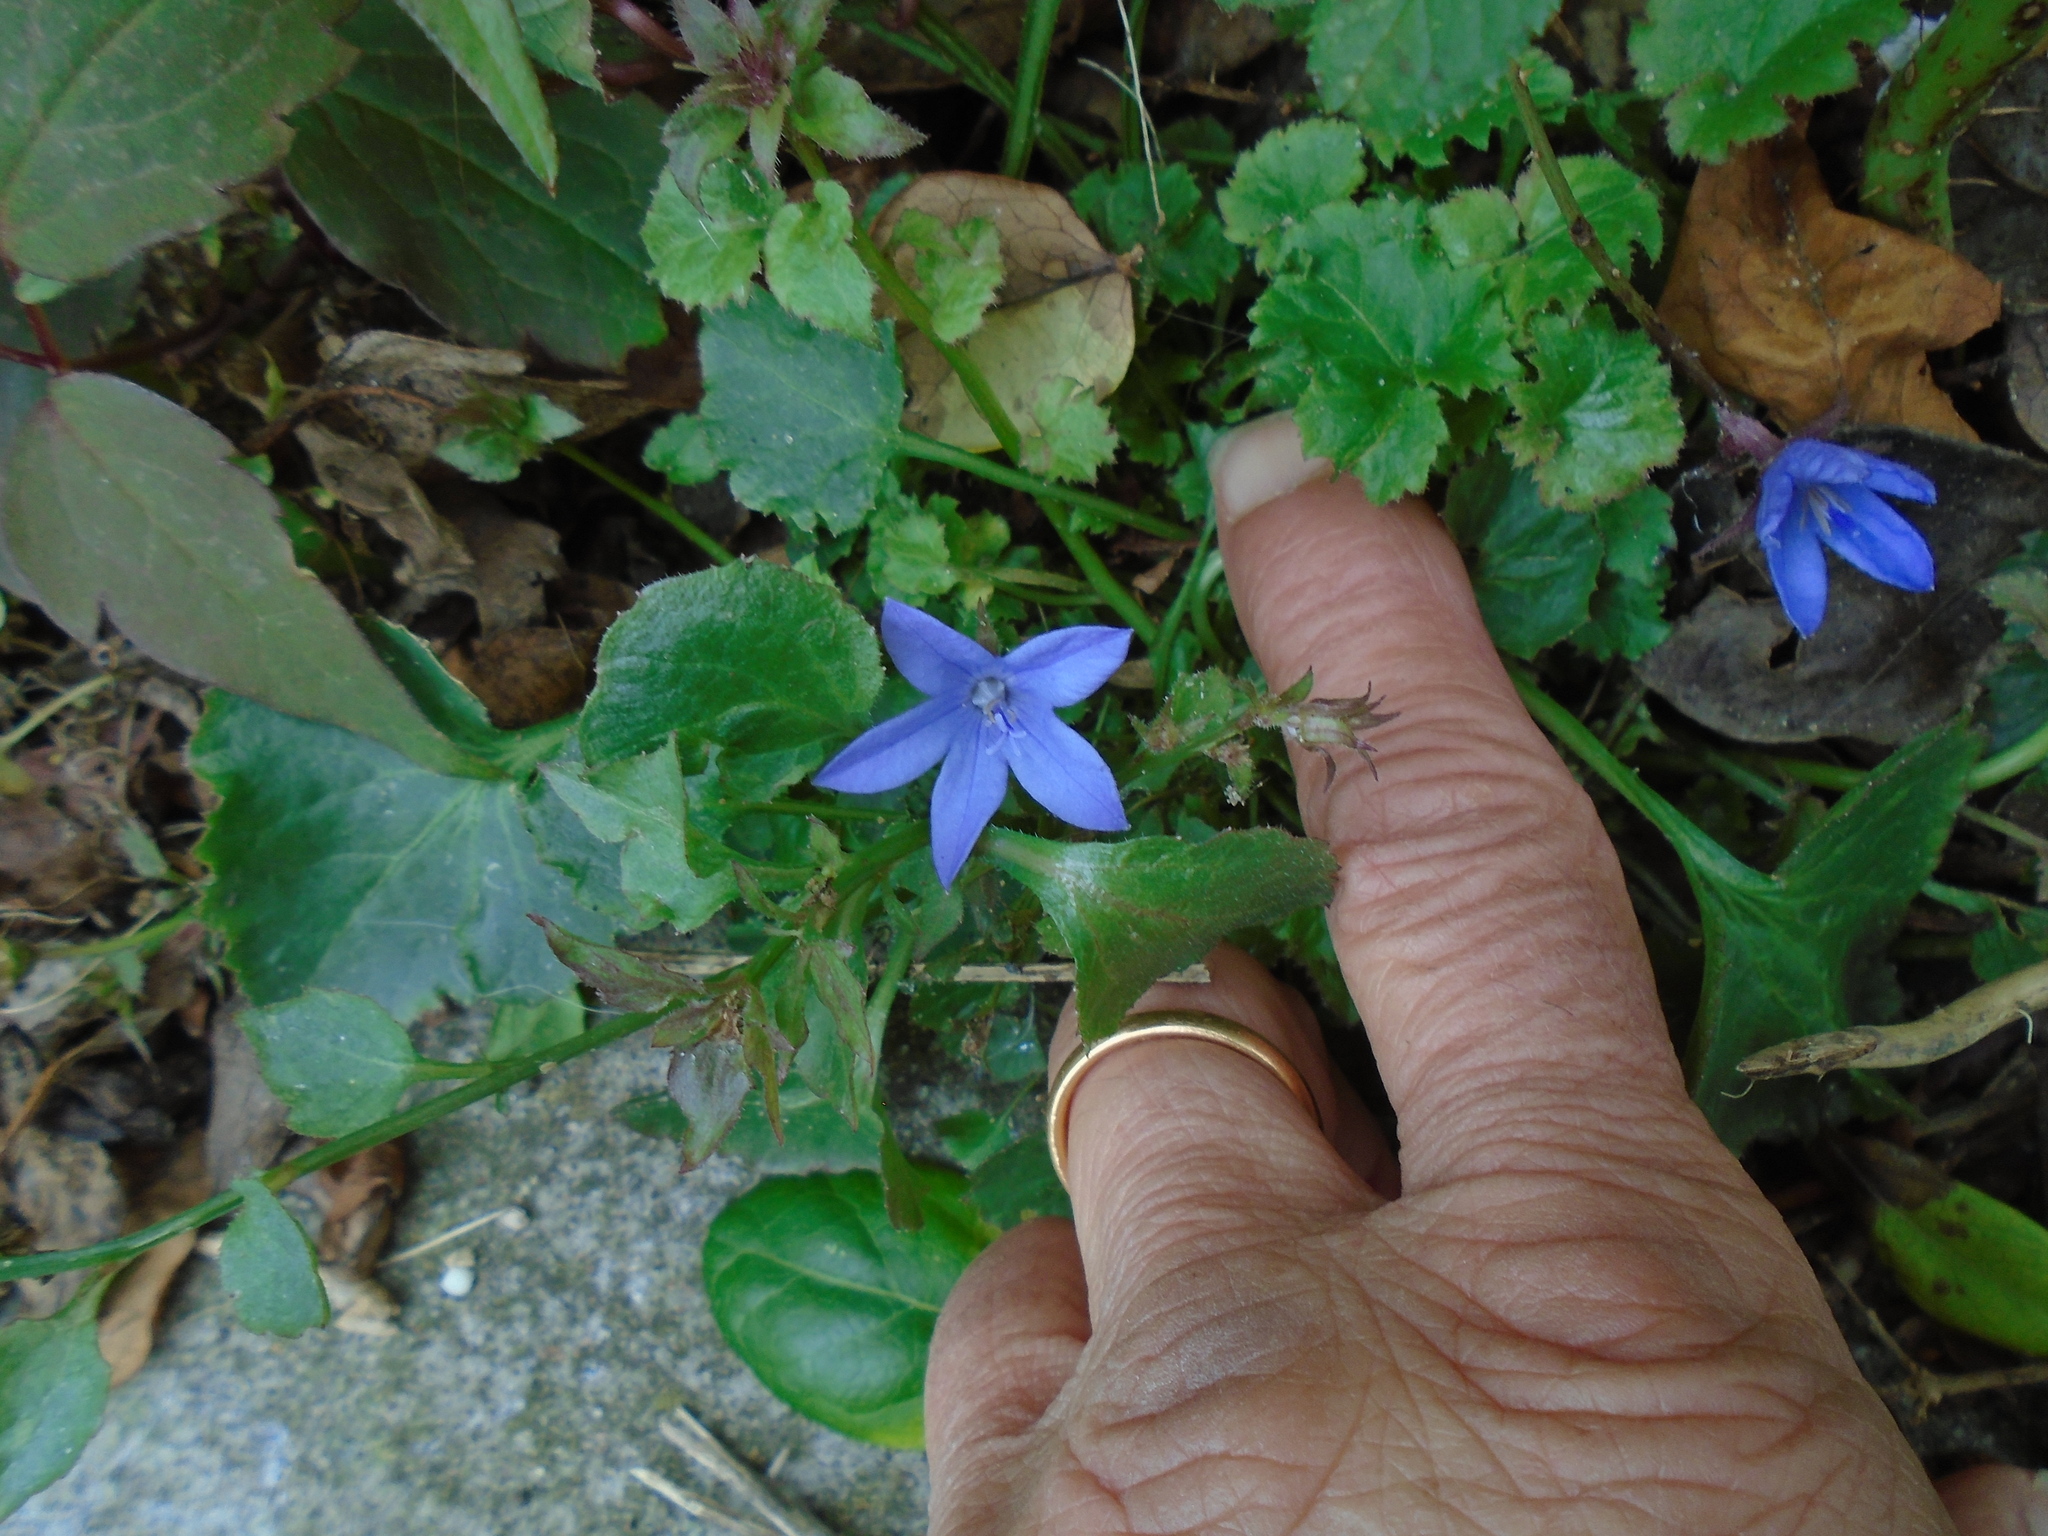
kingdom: Plantae
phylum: Tracheophyta
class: Magnoliopsida
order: Asterales
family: Campanulaceae
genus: Campanula
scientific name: Campanula poscharskyana
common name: Trailing bellflower
